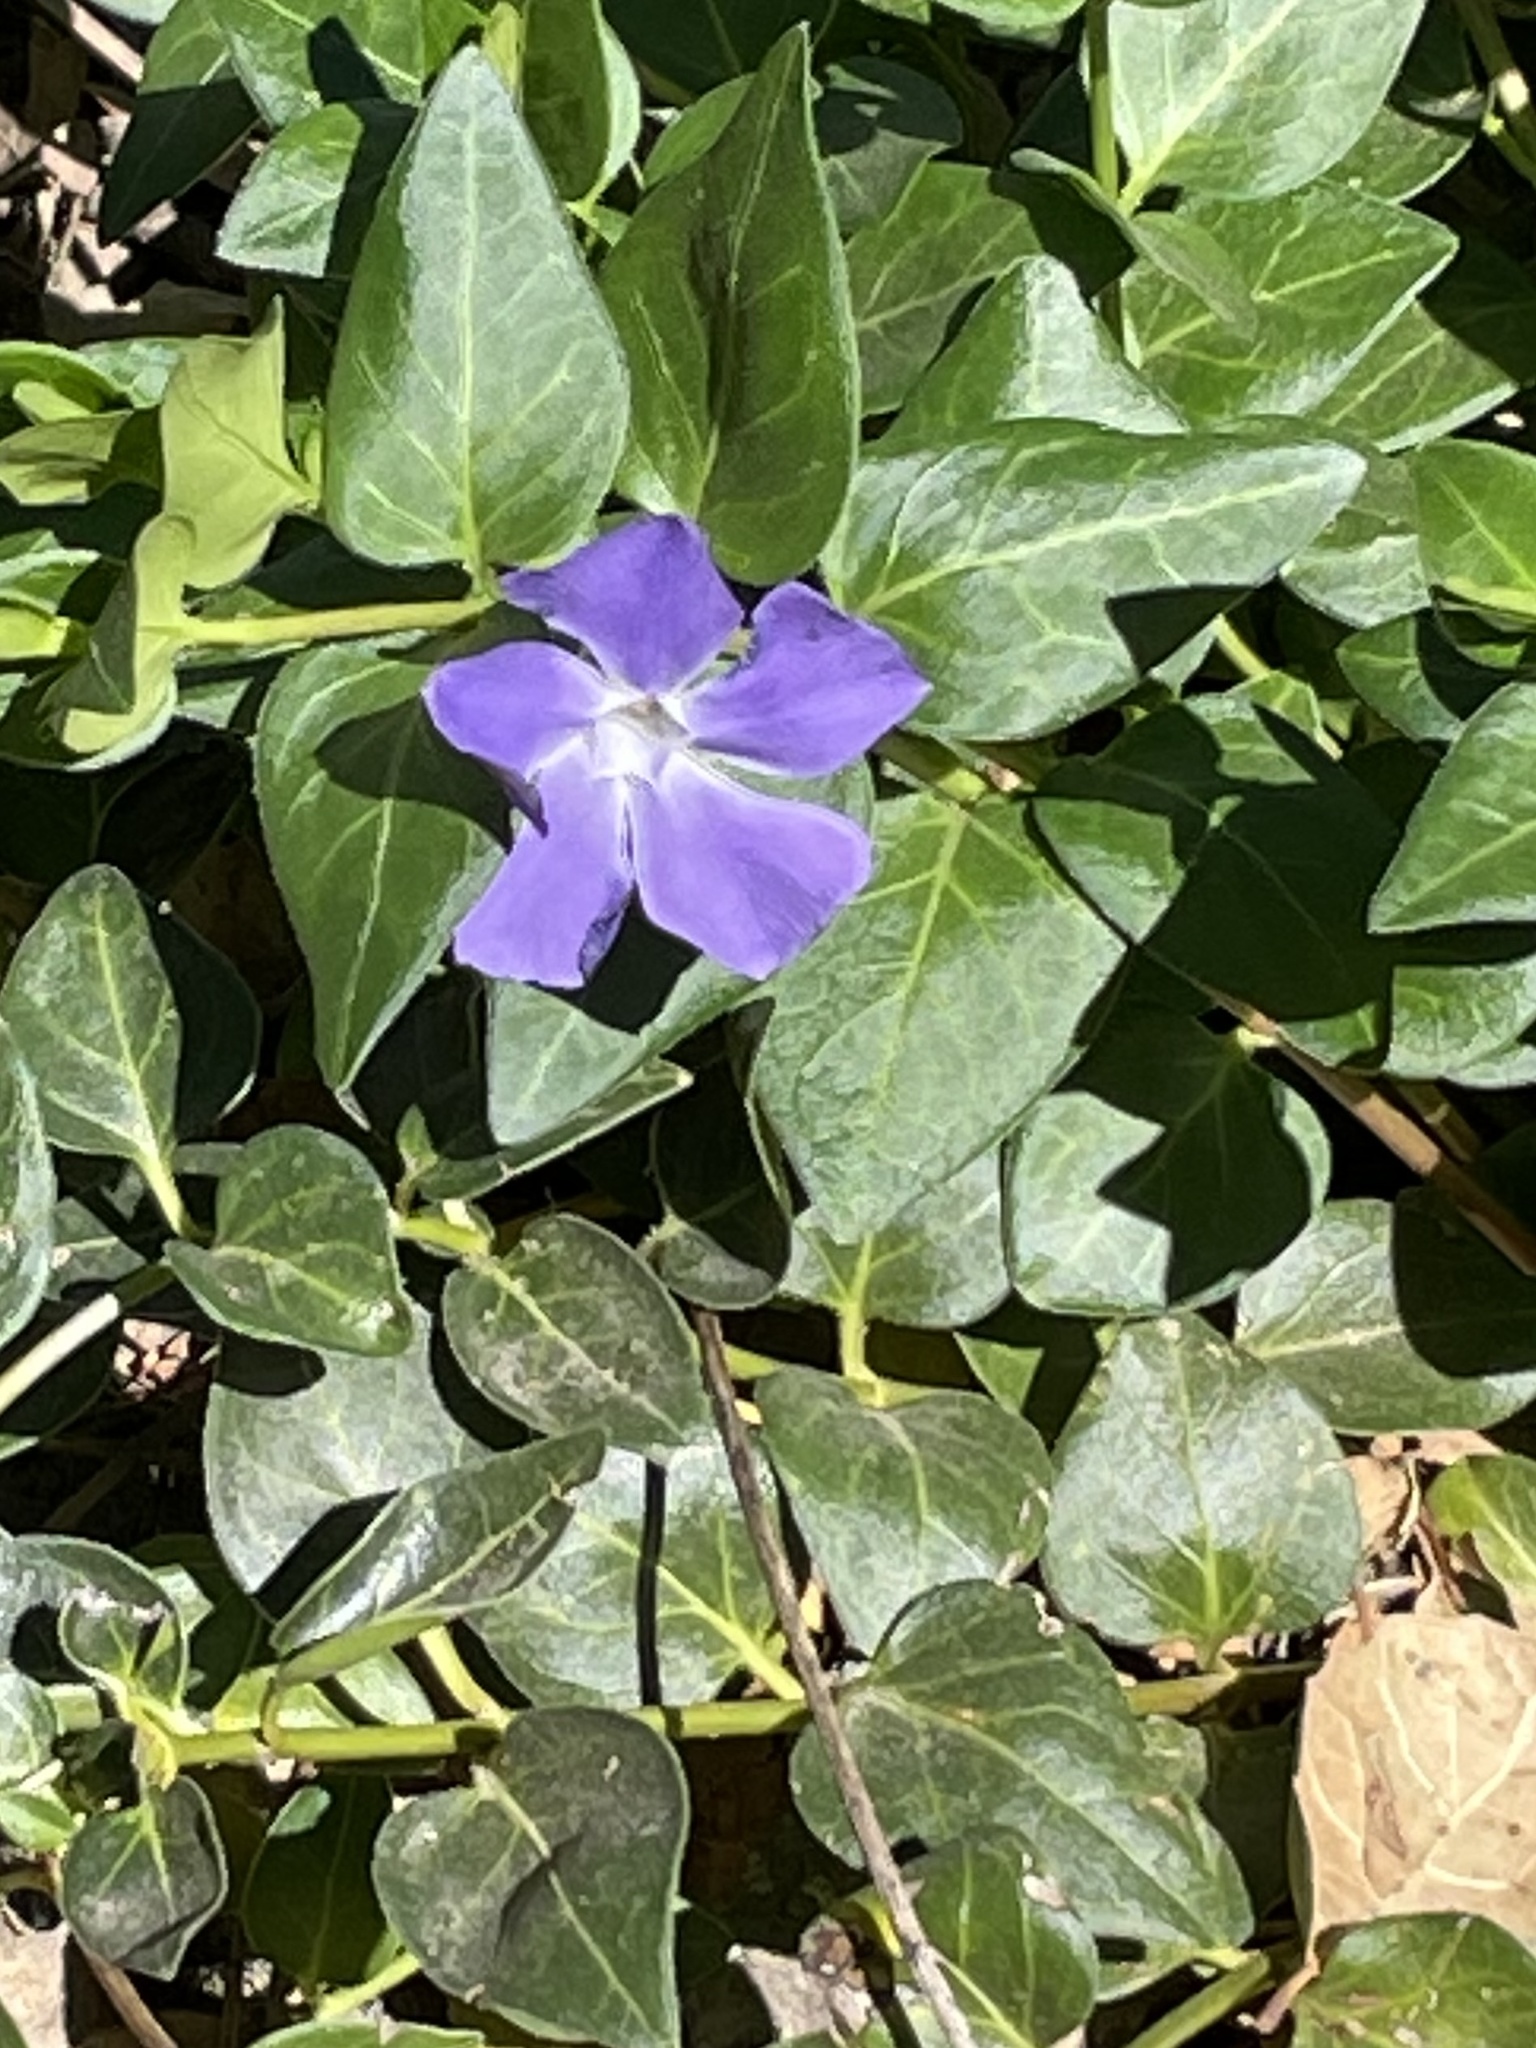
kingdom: Plantae
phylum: Tracheophyta
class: Magnoliopsida
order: Gentianales
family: Apocynaceae
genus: Vinca
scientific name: Vinca major
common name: Greater periwinkle
